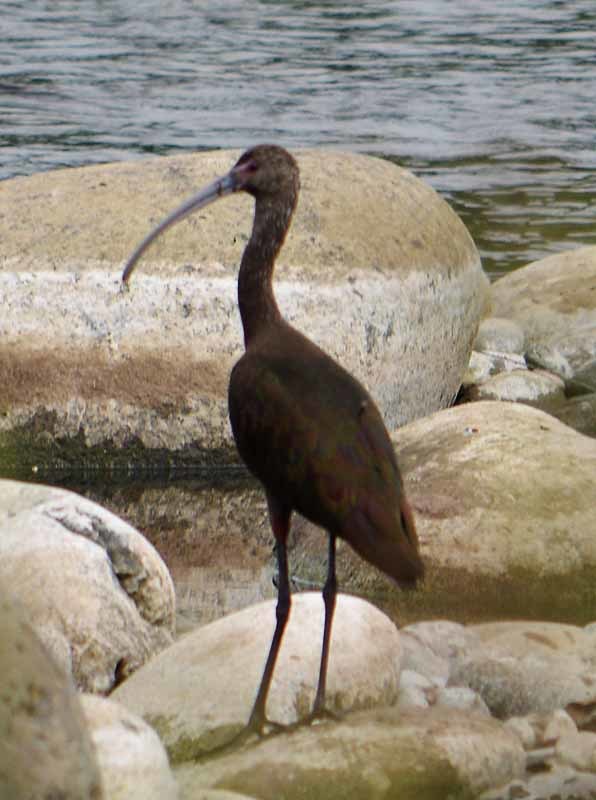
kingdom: Animalia
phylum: Chordata
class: Aves
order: Pelecaniformes
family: Threskiornithidae
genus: Plegadis
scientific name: Plegadis chihi
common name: White-faced ibis
